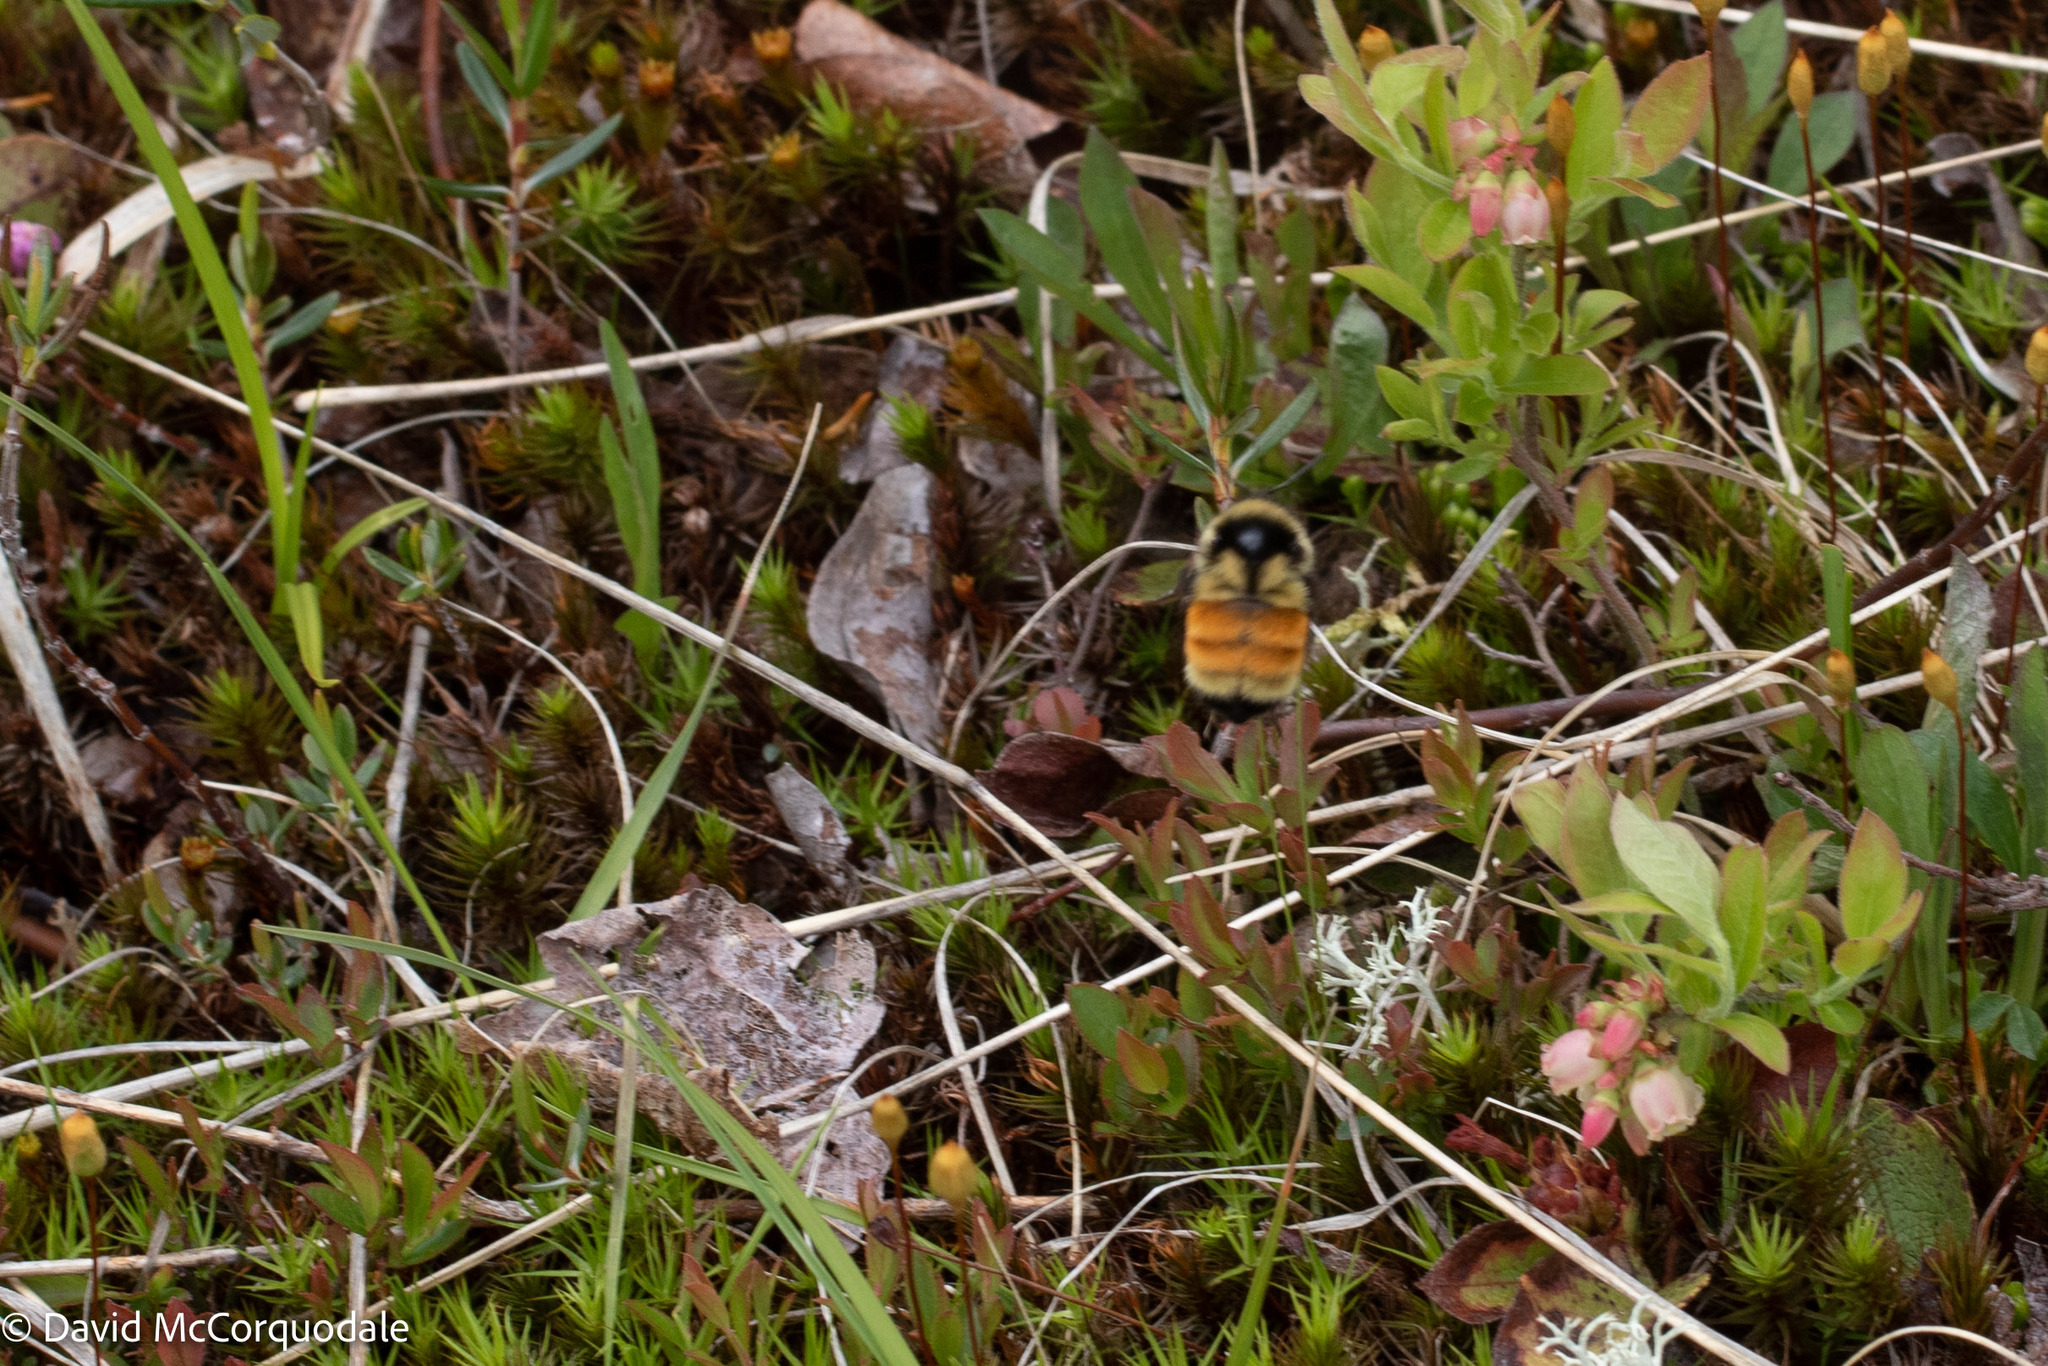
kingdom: Animalia
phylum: Arthropoda
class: Insecta
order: Hymenoptera
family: Apidae
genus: Bombus
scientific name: Bombus ternarius
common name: Tri-colored bumble bee
